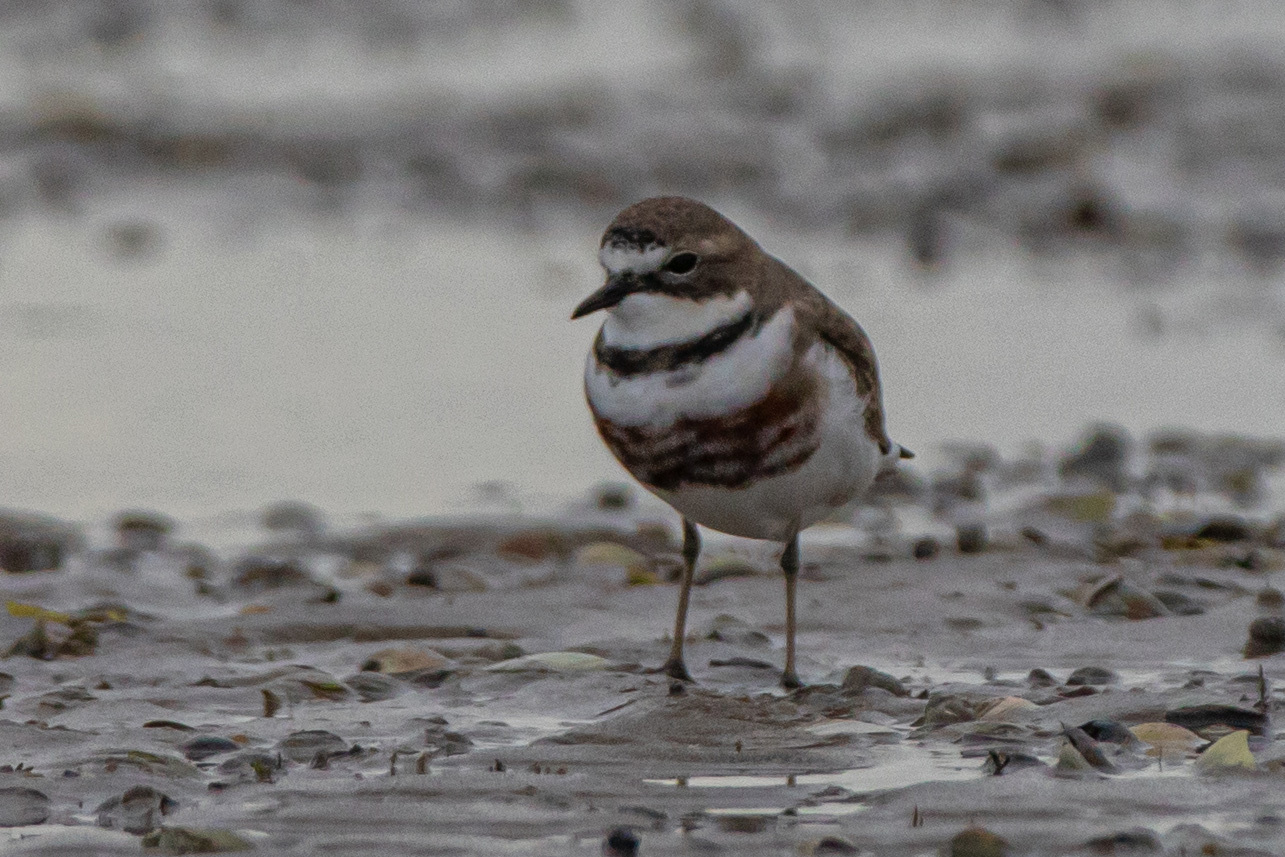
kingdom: Animalia
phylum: Chordata
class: Aves
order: Charadriiformes
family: Charadriidae
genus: Anarhynchus
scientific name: Anarhynchus
